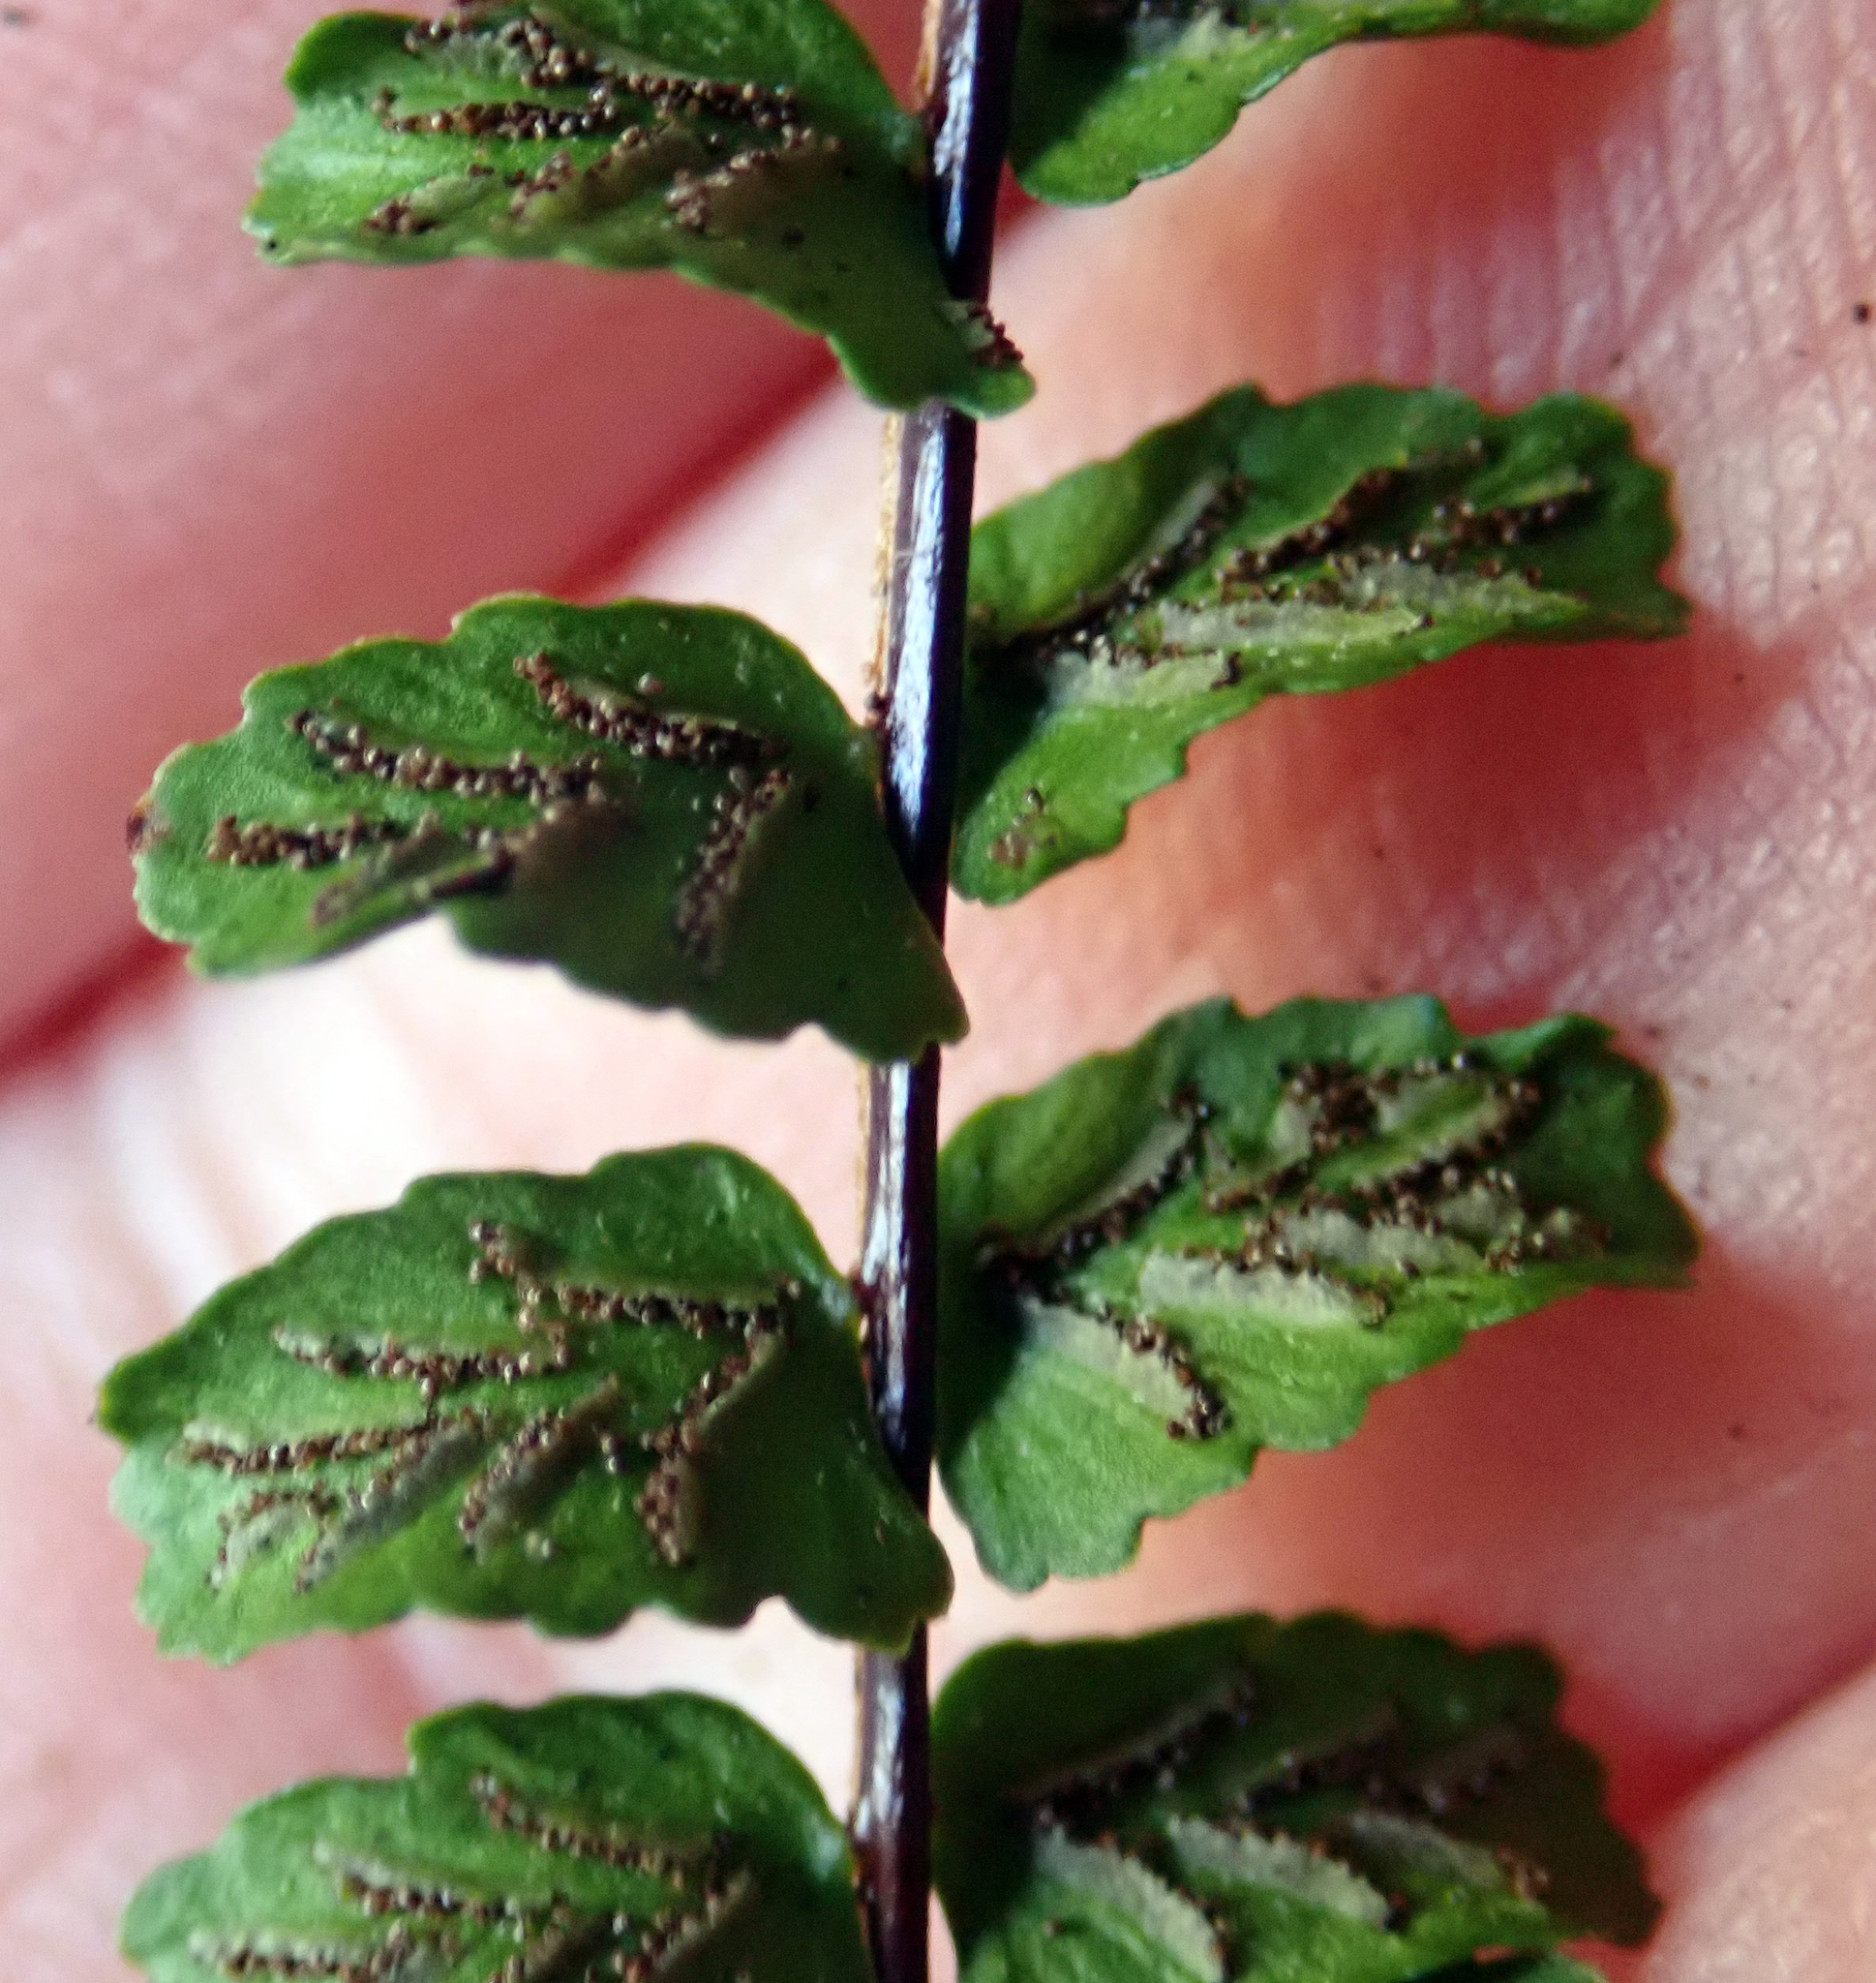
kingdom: Plantae
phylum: Tracheophyta
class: Polypodiopsida
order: Polypodiales
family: Aspleniaceae
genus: Asplenium
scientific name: Asplenium trichomanes
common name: Maidenhair spleenwort
